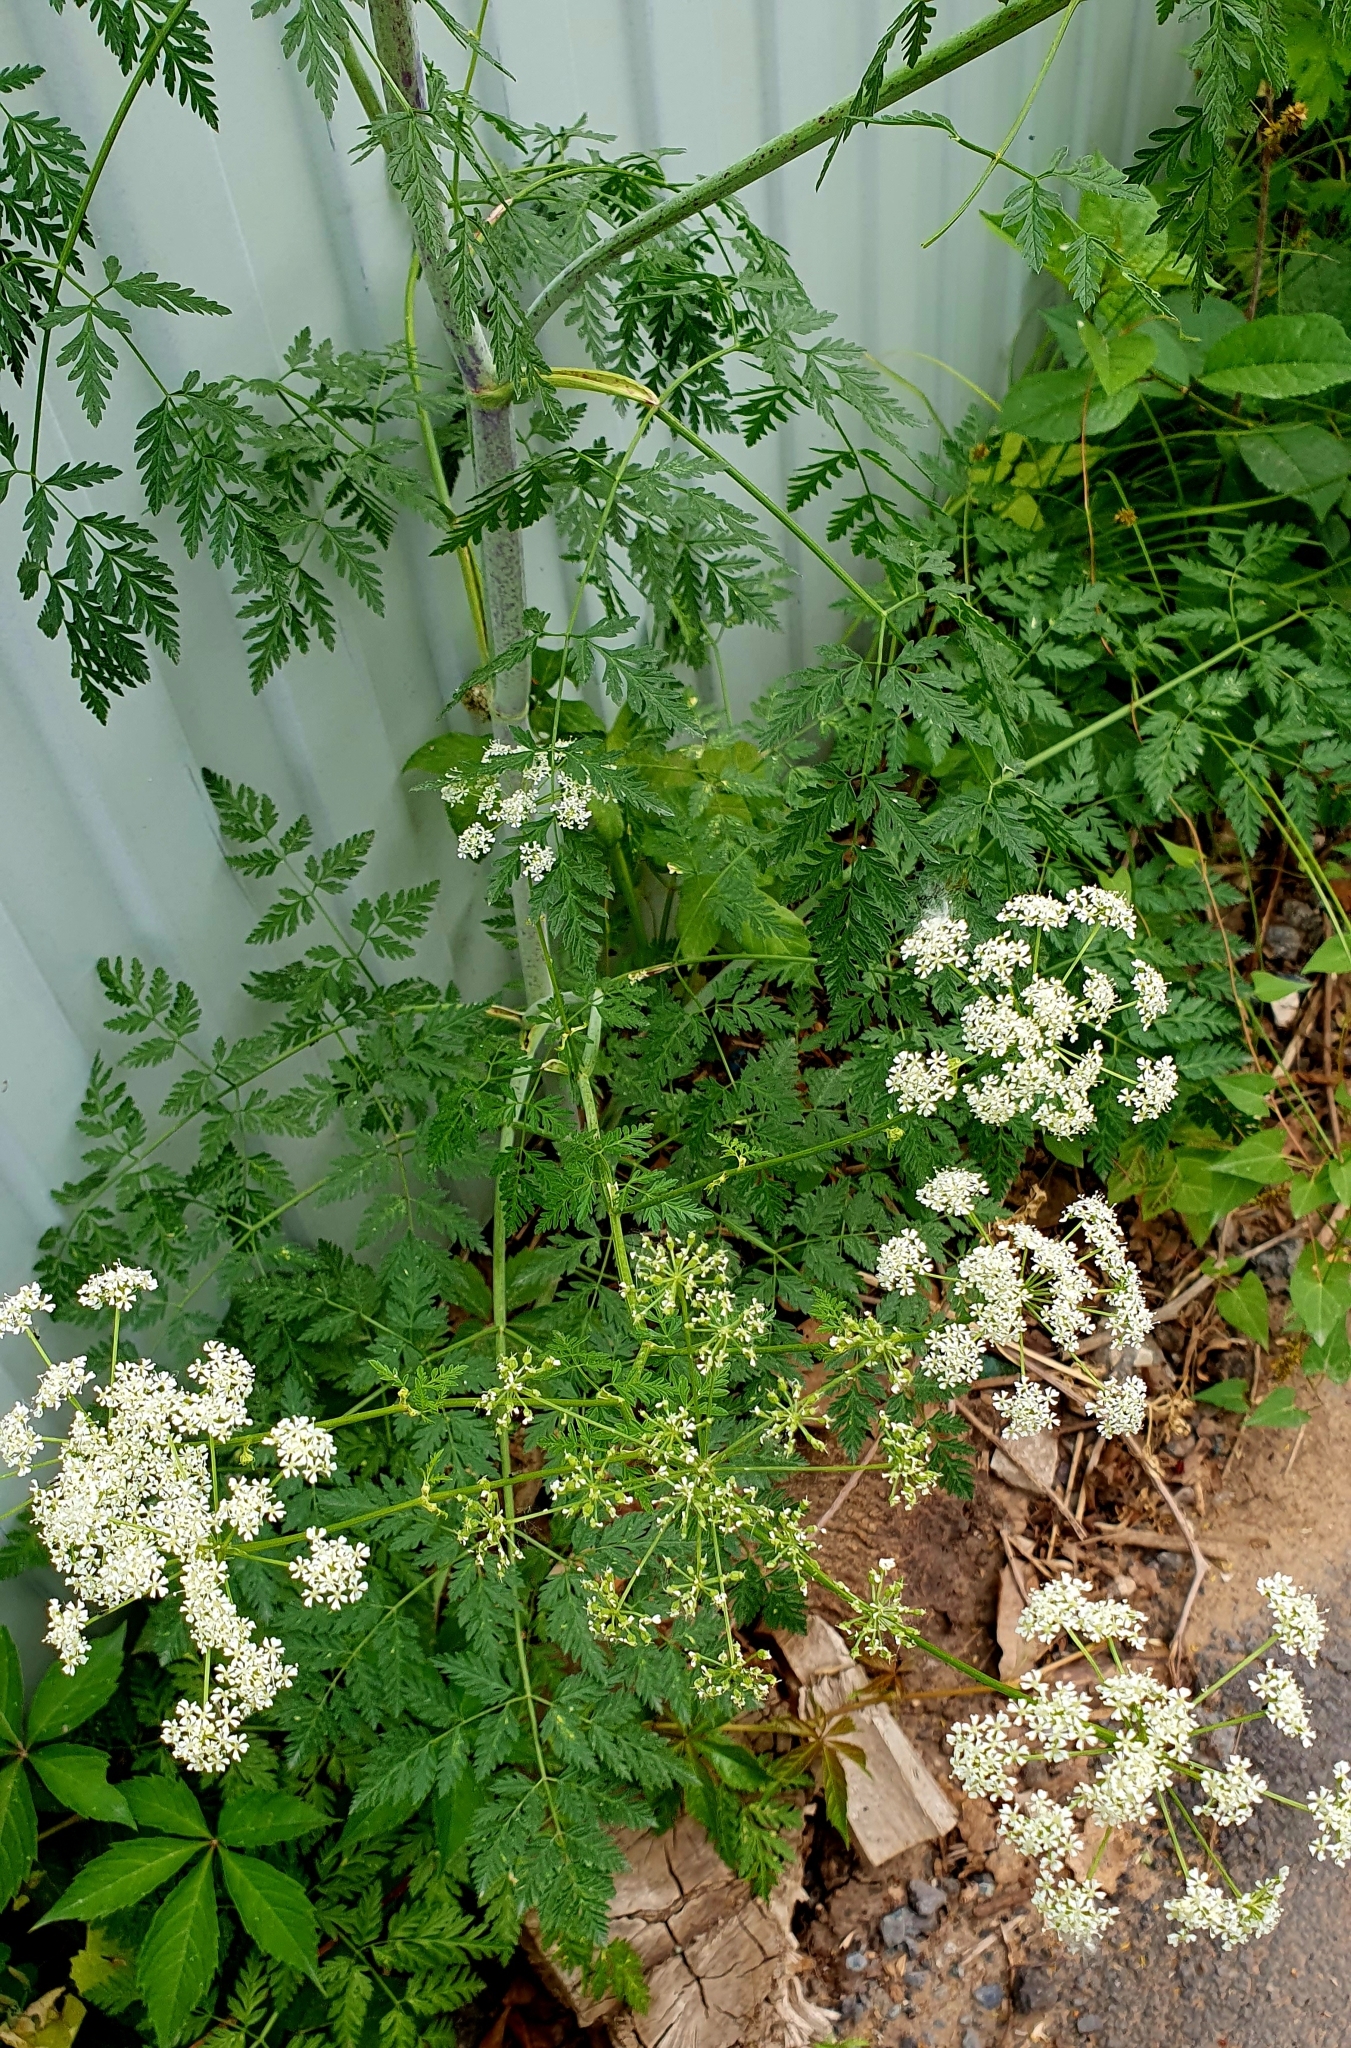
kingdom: Plantae
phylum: Tracheophyta
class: Magnoliopsida
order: Apiales
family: Apiaceae
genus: Conium
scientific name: Conium maculatum
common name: Hemlock
